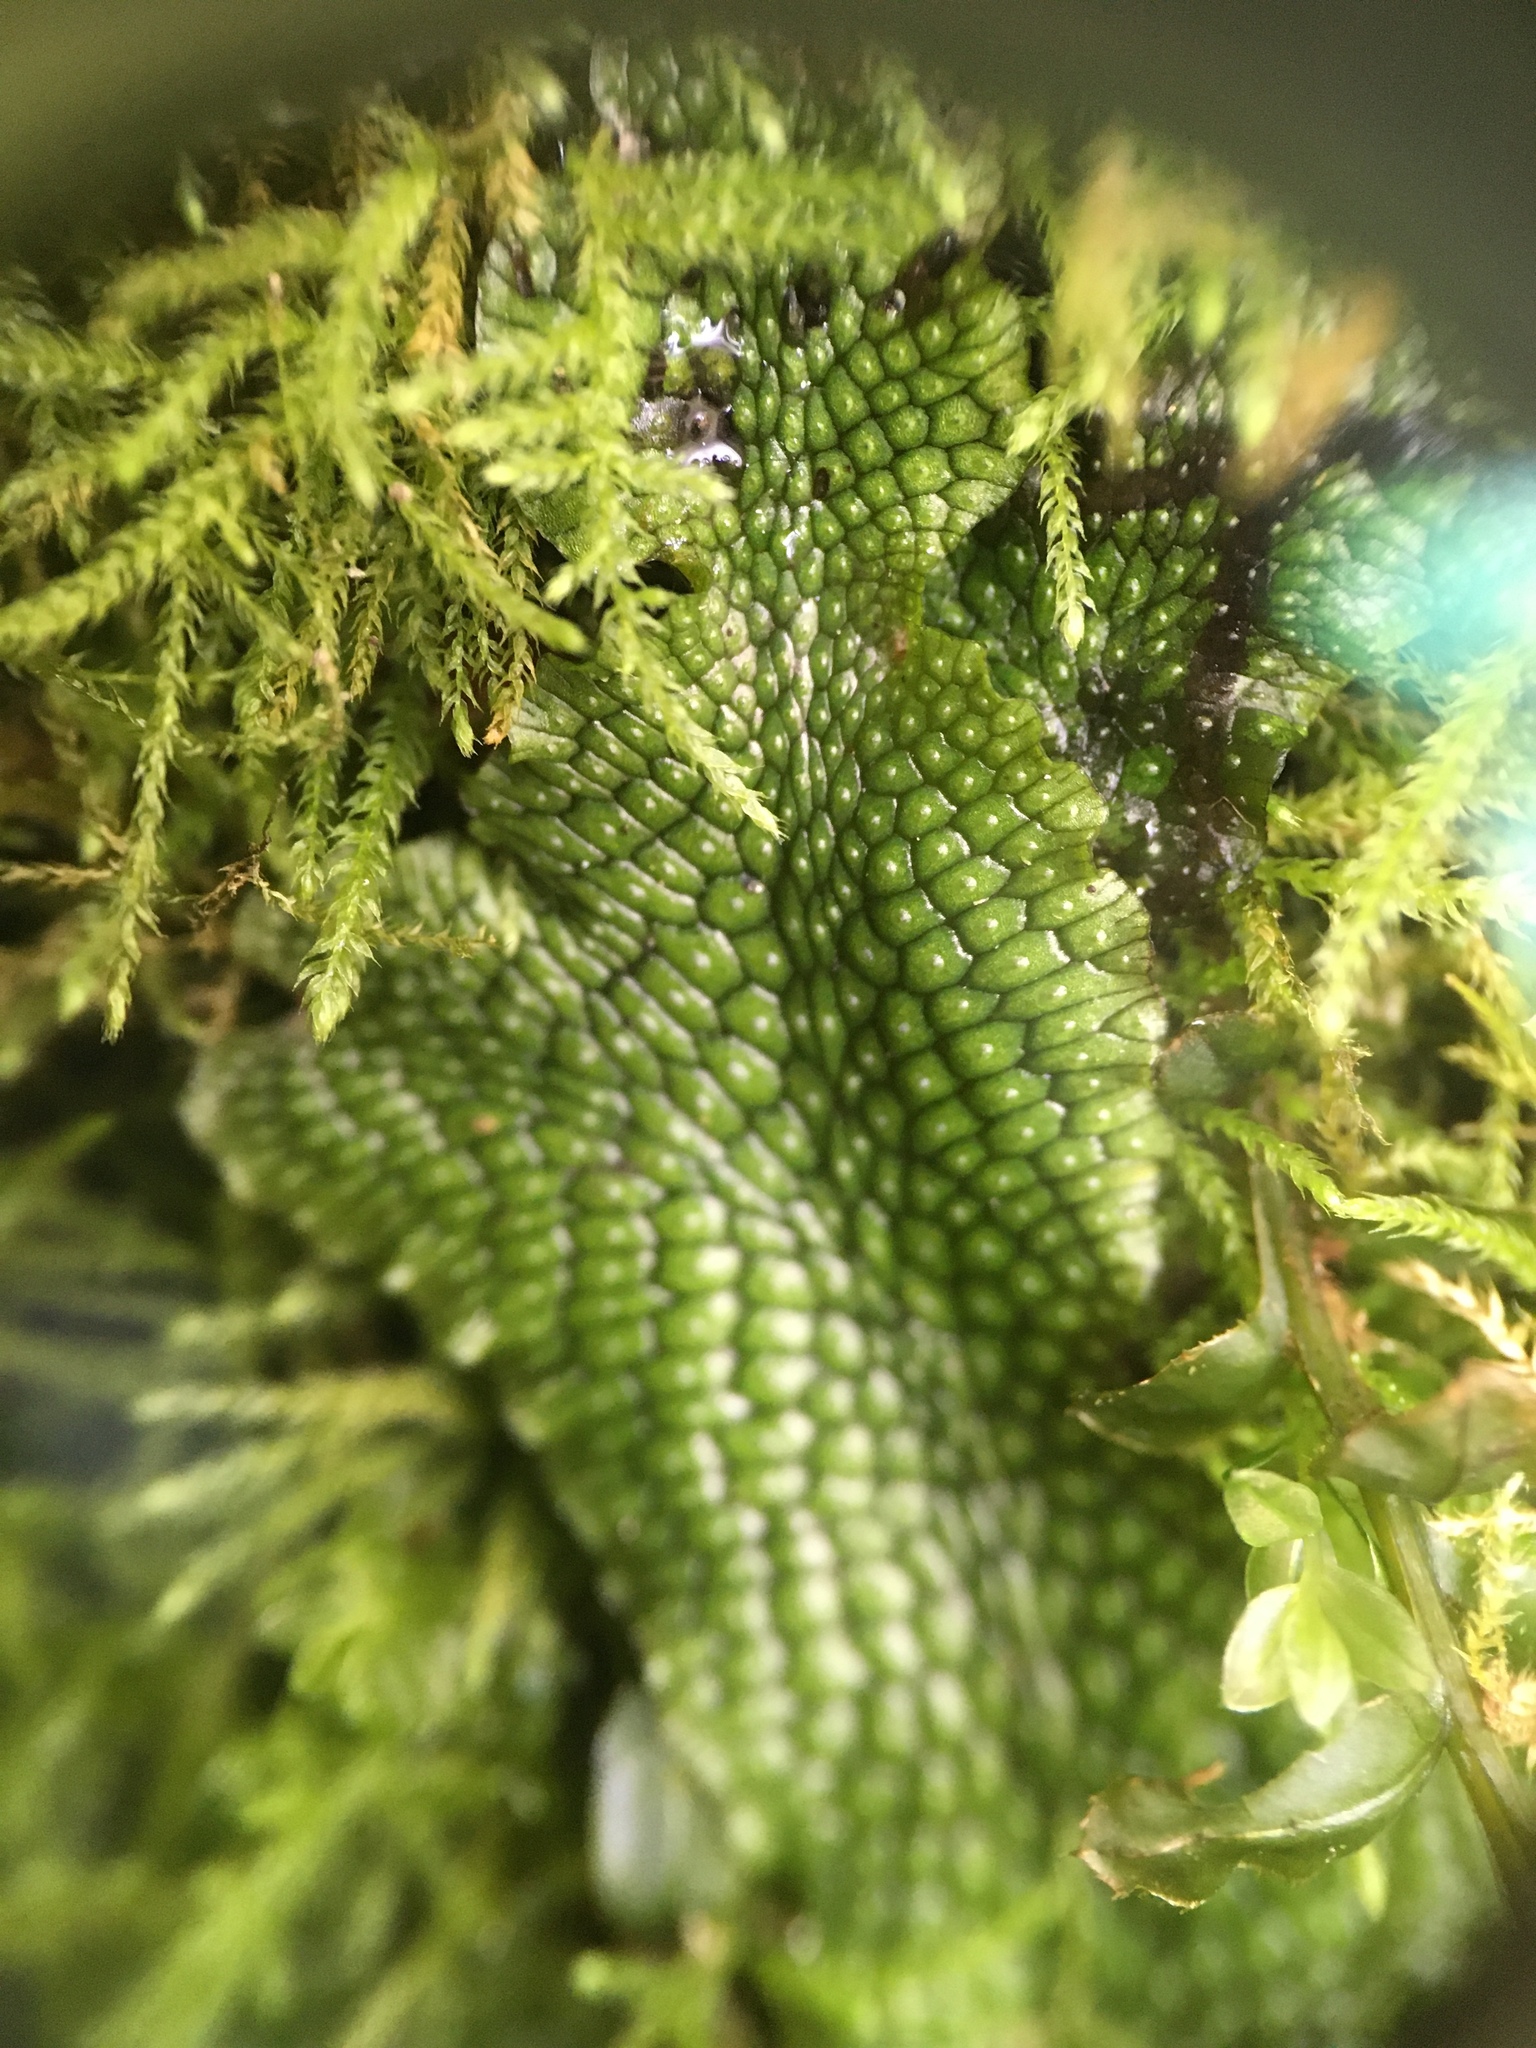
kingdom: Plantae
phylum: Marchantiophyta
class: Marchantiopsida
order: Marchantiales
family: Conocephalaceae
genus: Conocephalum
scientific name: Conocephalum salebrosum
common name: Cat-tongue liverwort
